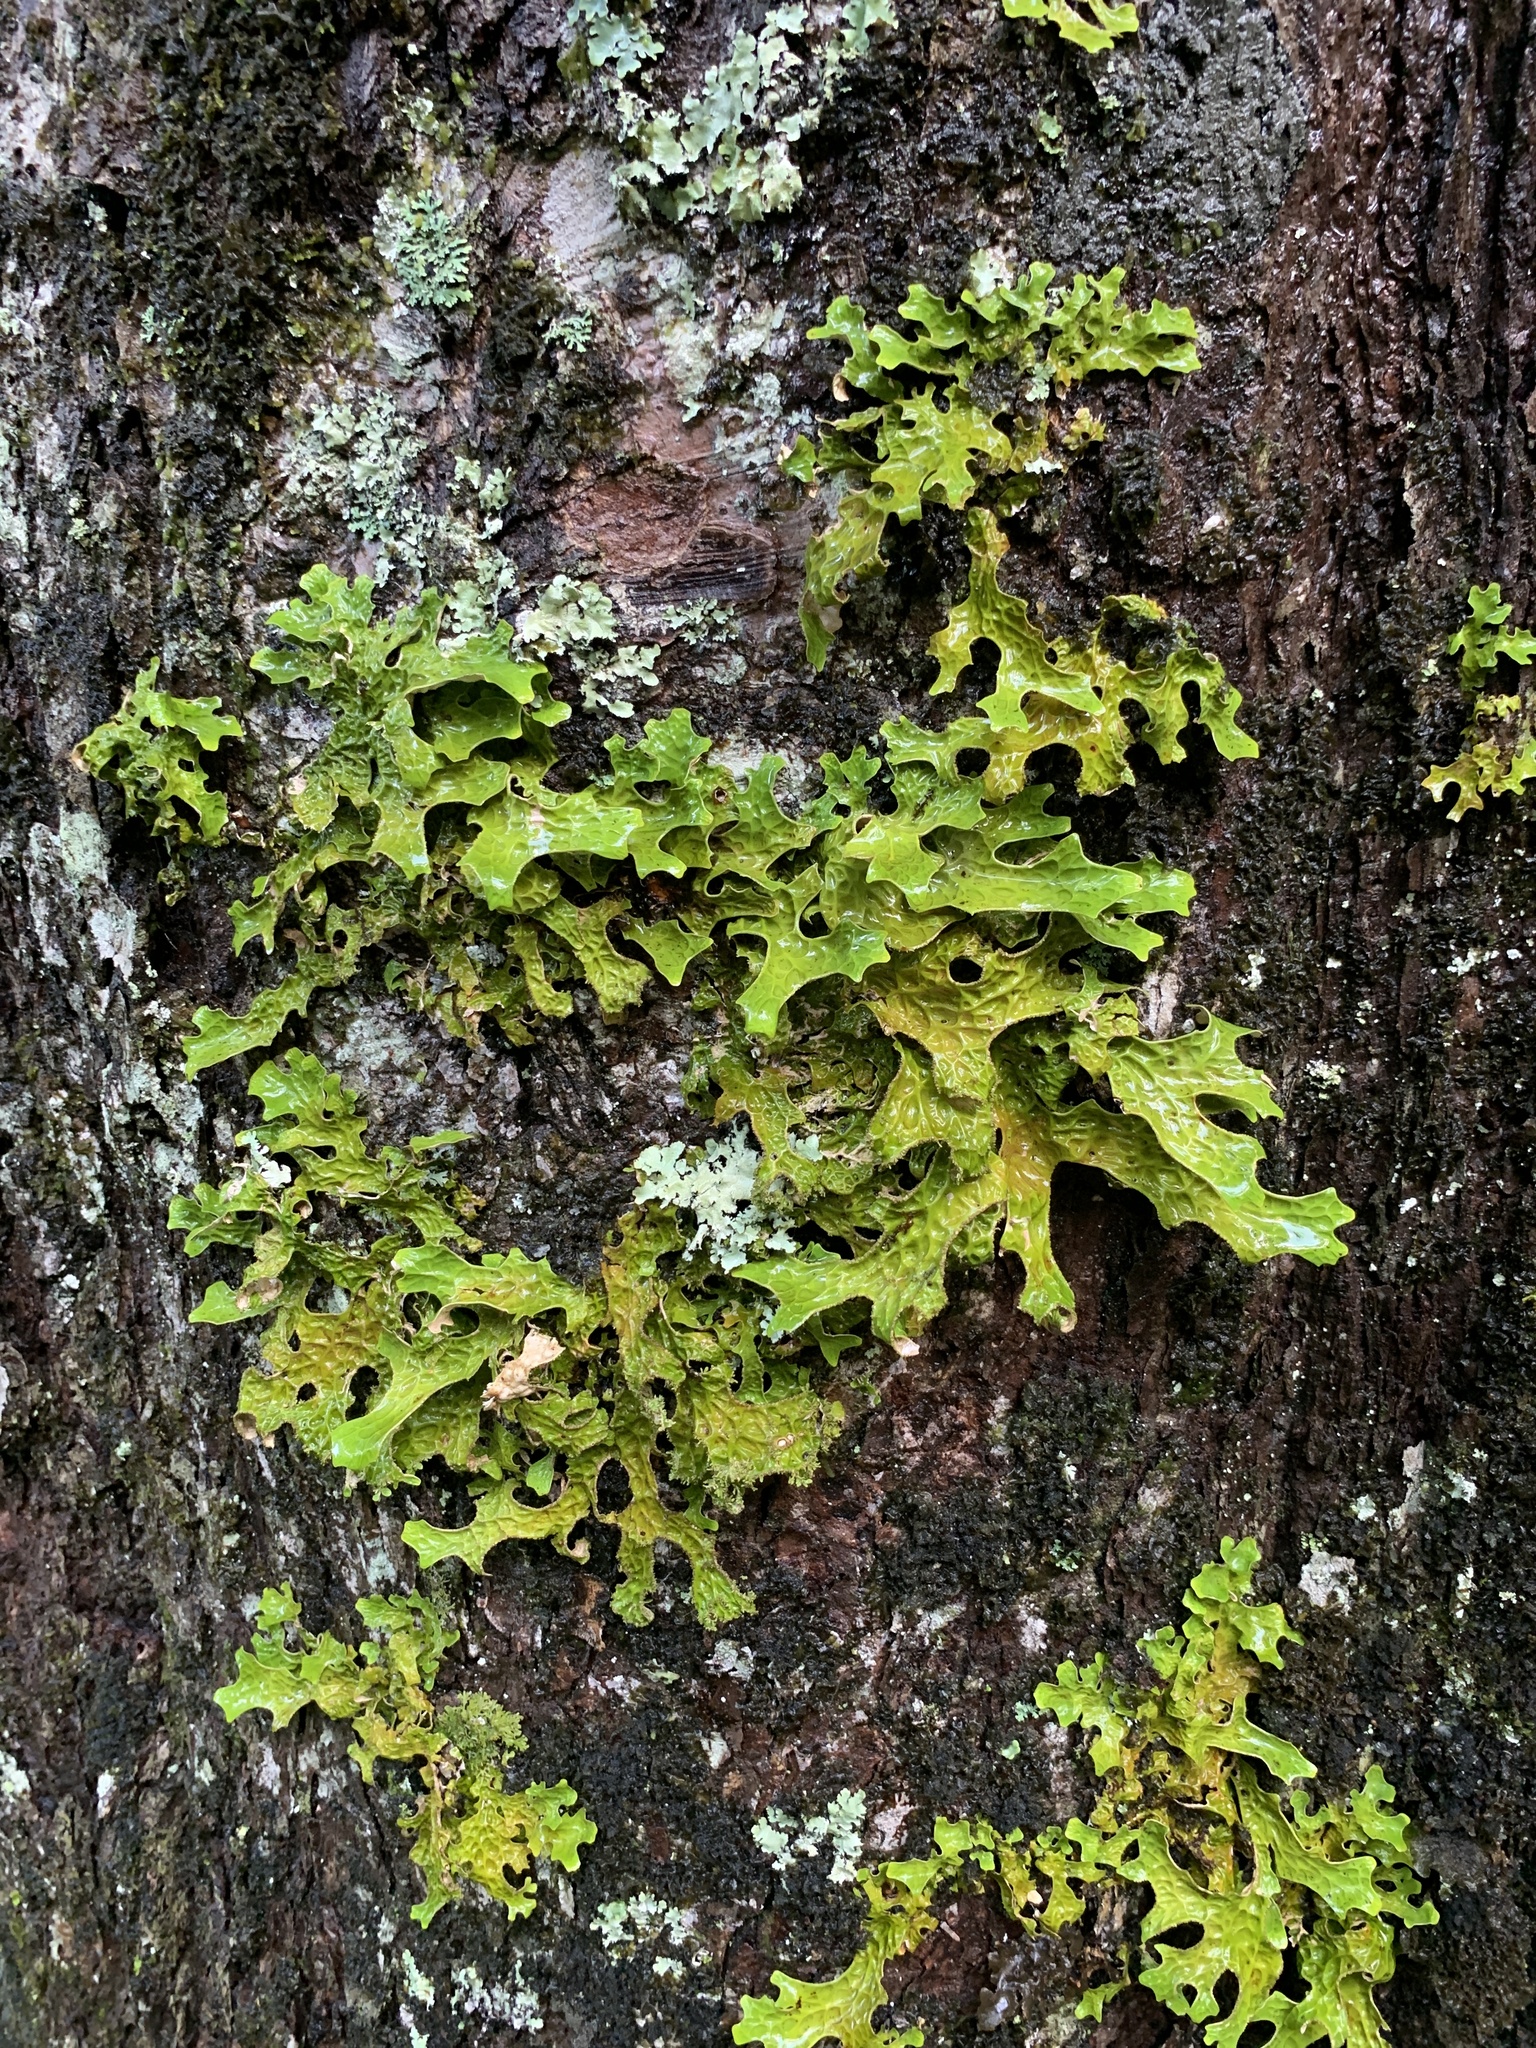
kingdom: Fungi
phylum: Ascomycota
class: Lecanoromycetes
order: Peltigerales
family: Lobariaceae
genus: Lobaria
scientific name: Lobaria pulmonaria
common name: Lungwort
